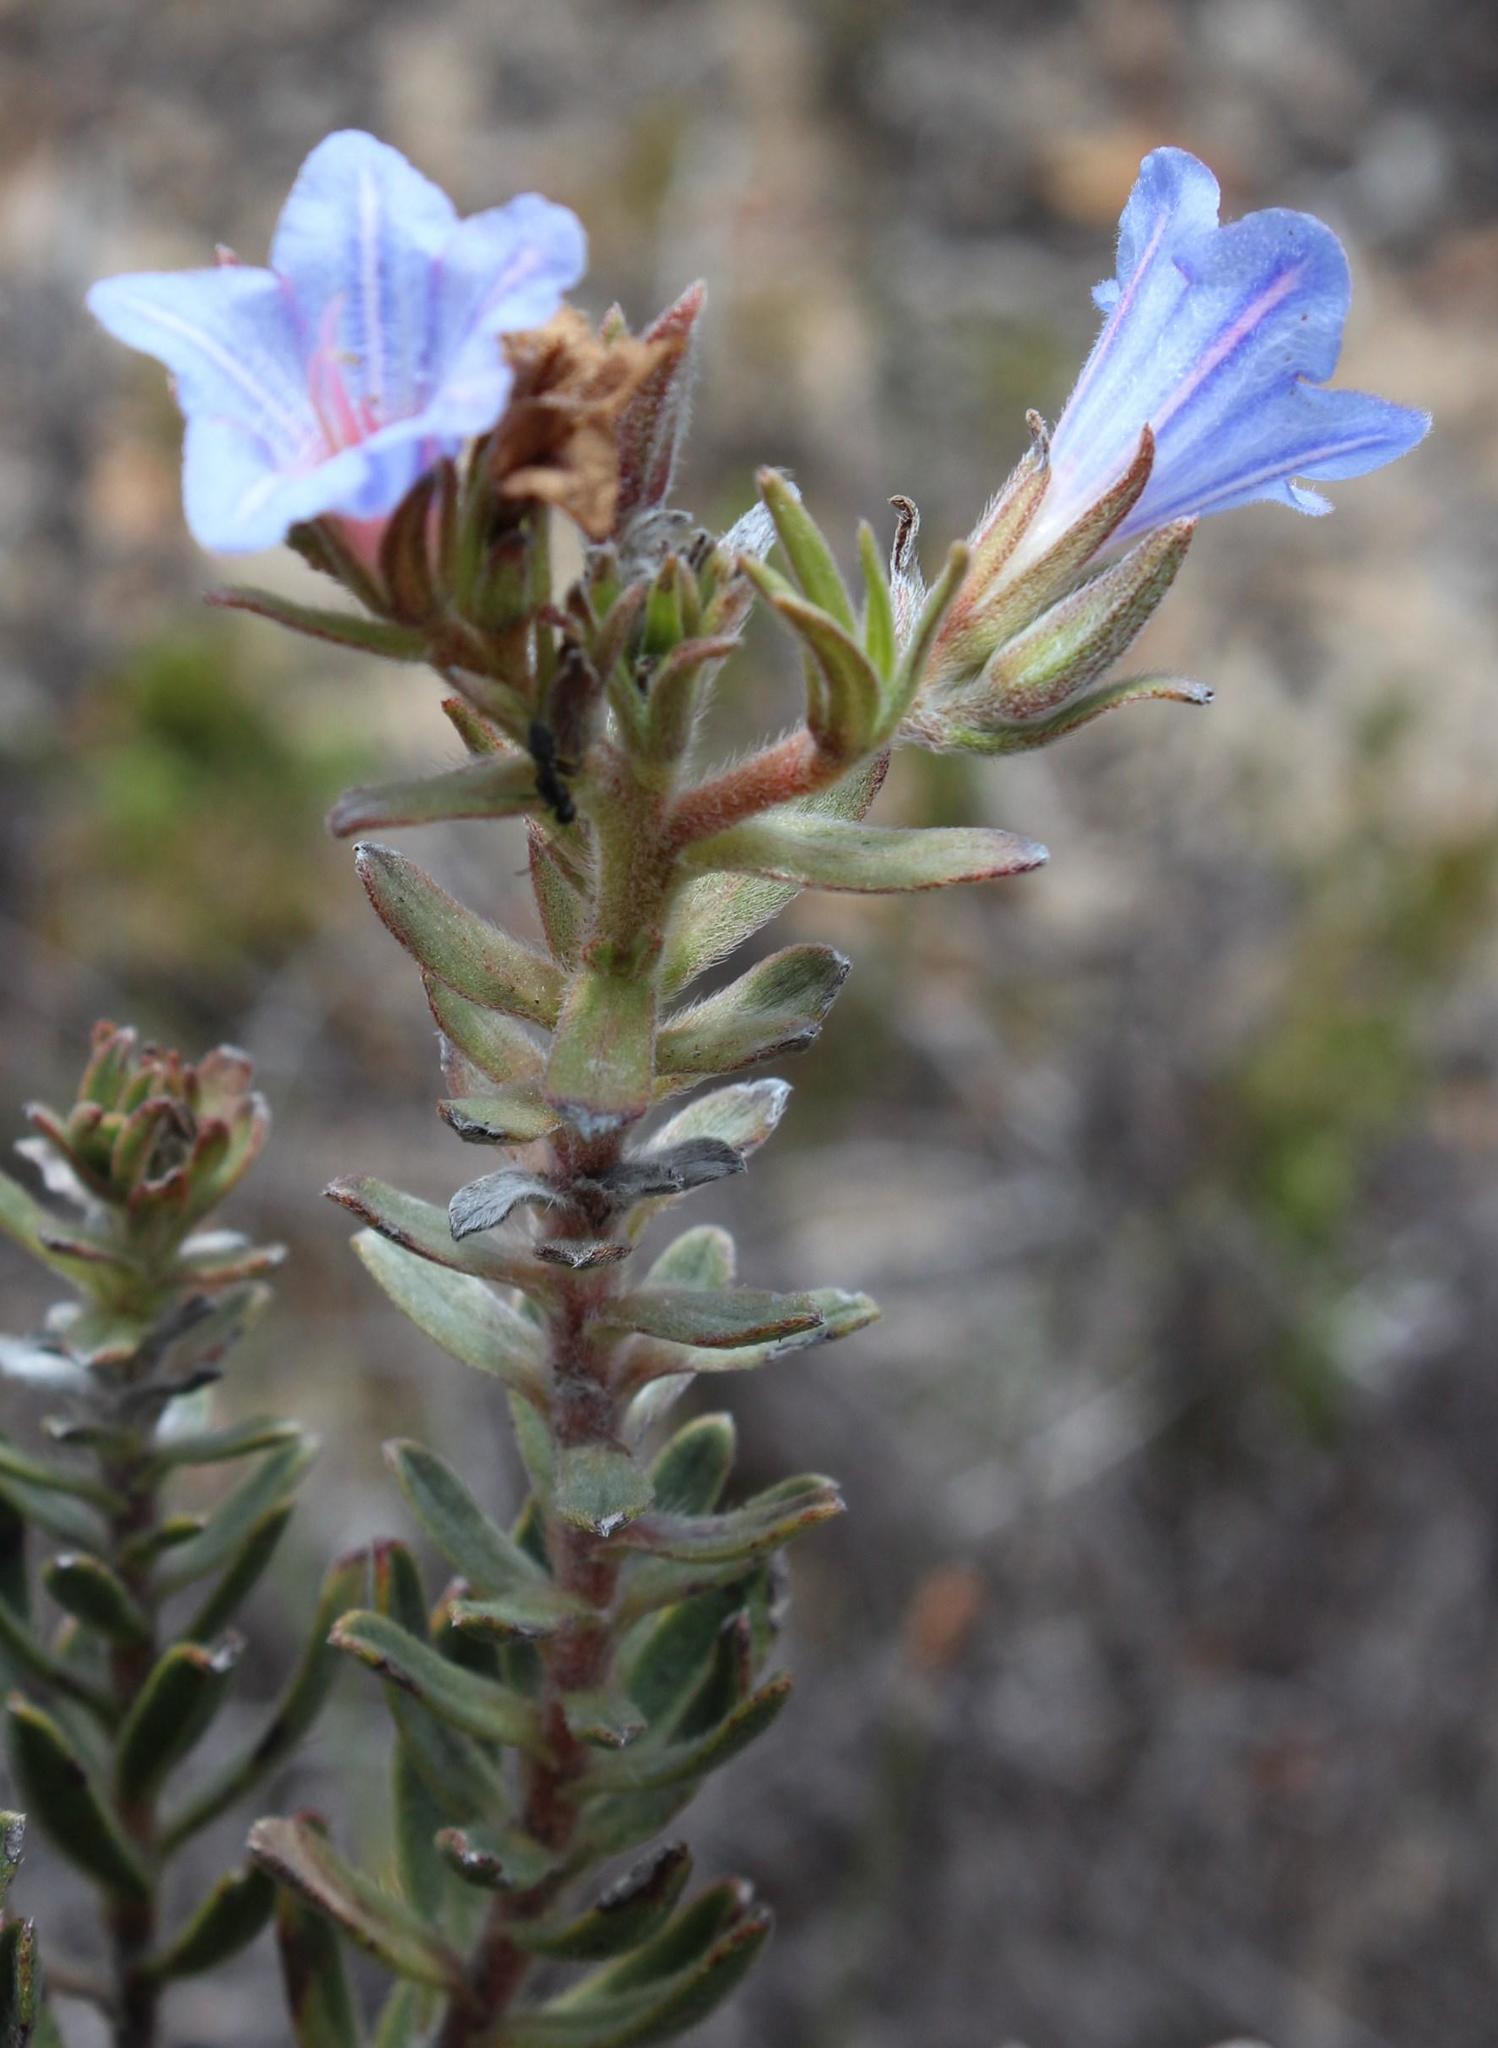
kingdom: Plantae
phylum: Tracheophyta
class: Magnoliopsida
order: Boraginales
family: Boraginaceae
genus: Lobostemon
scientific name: Lobostemon fruticosus
